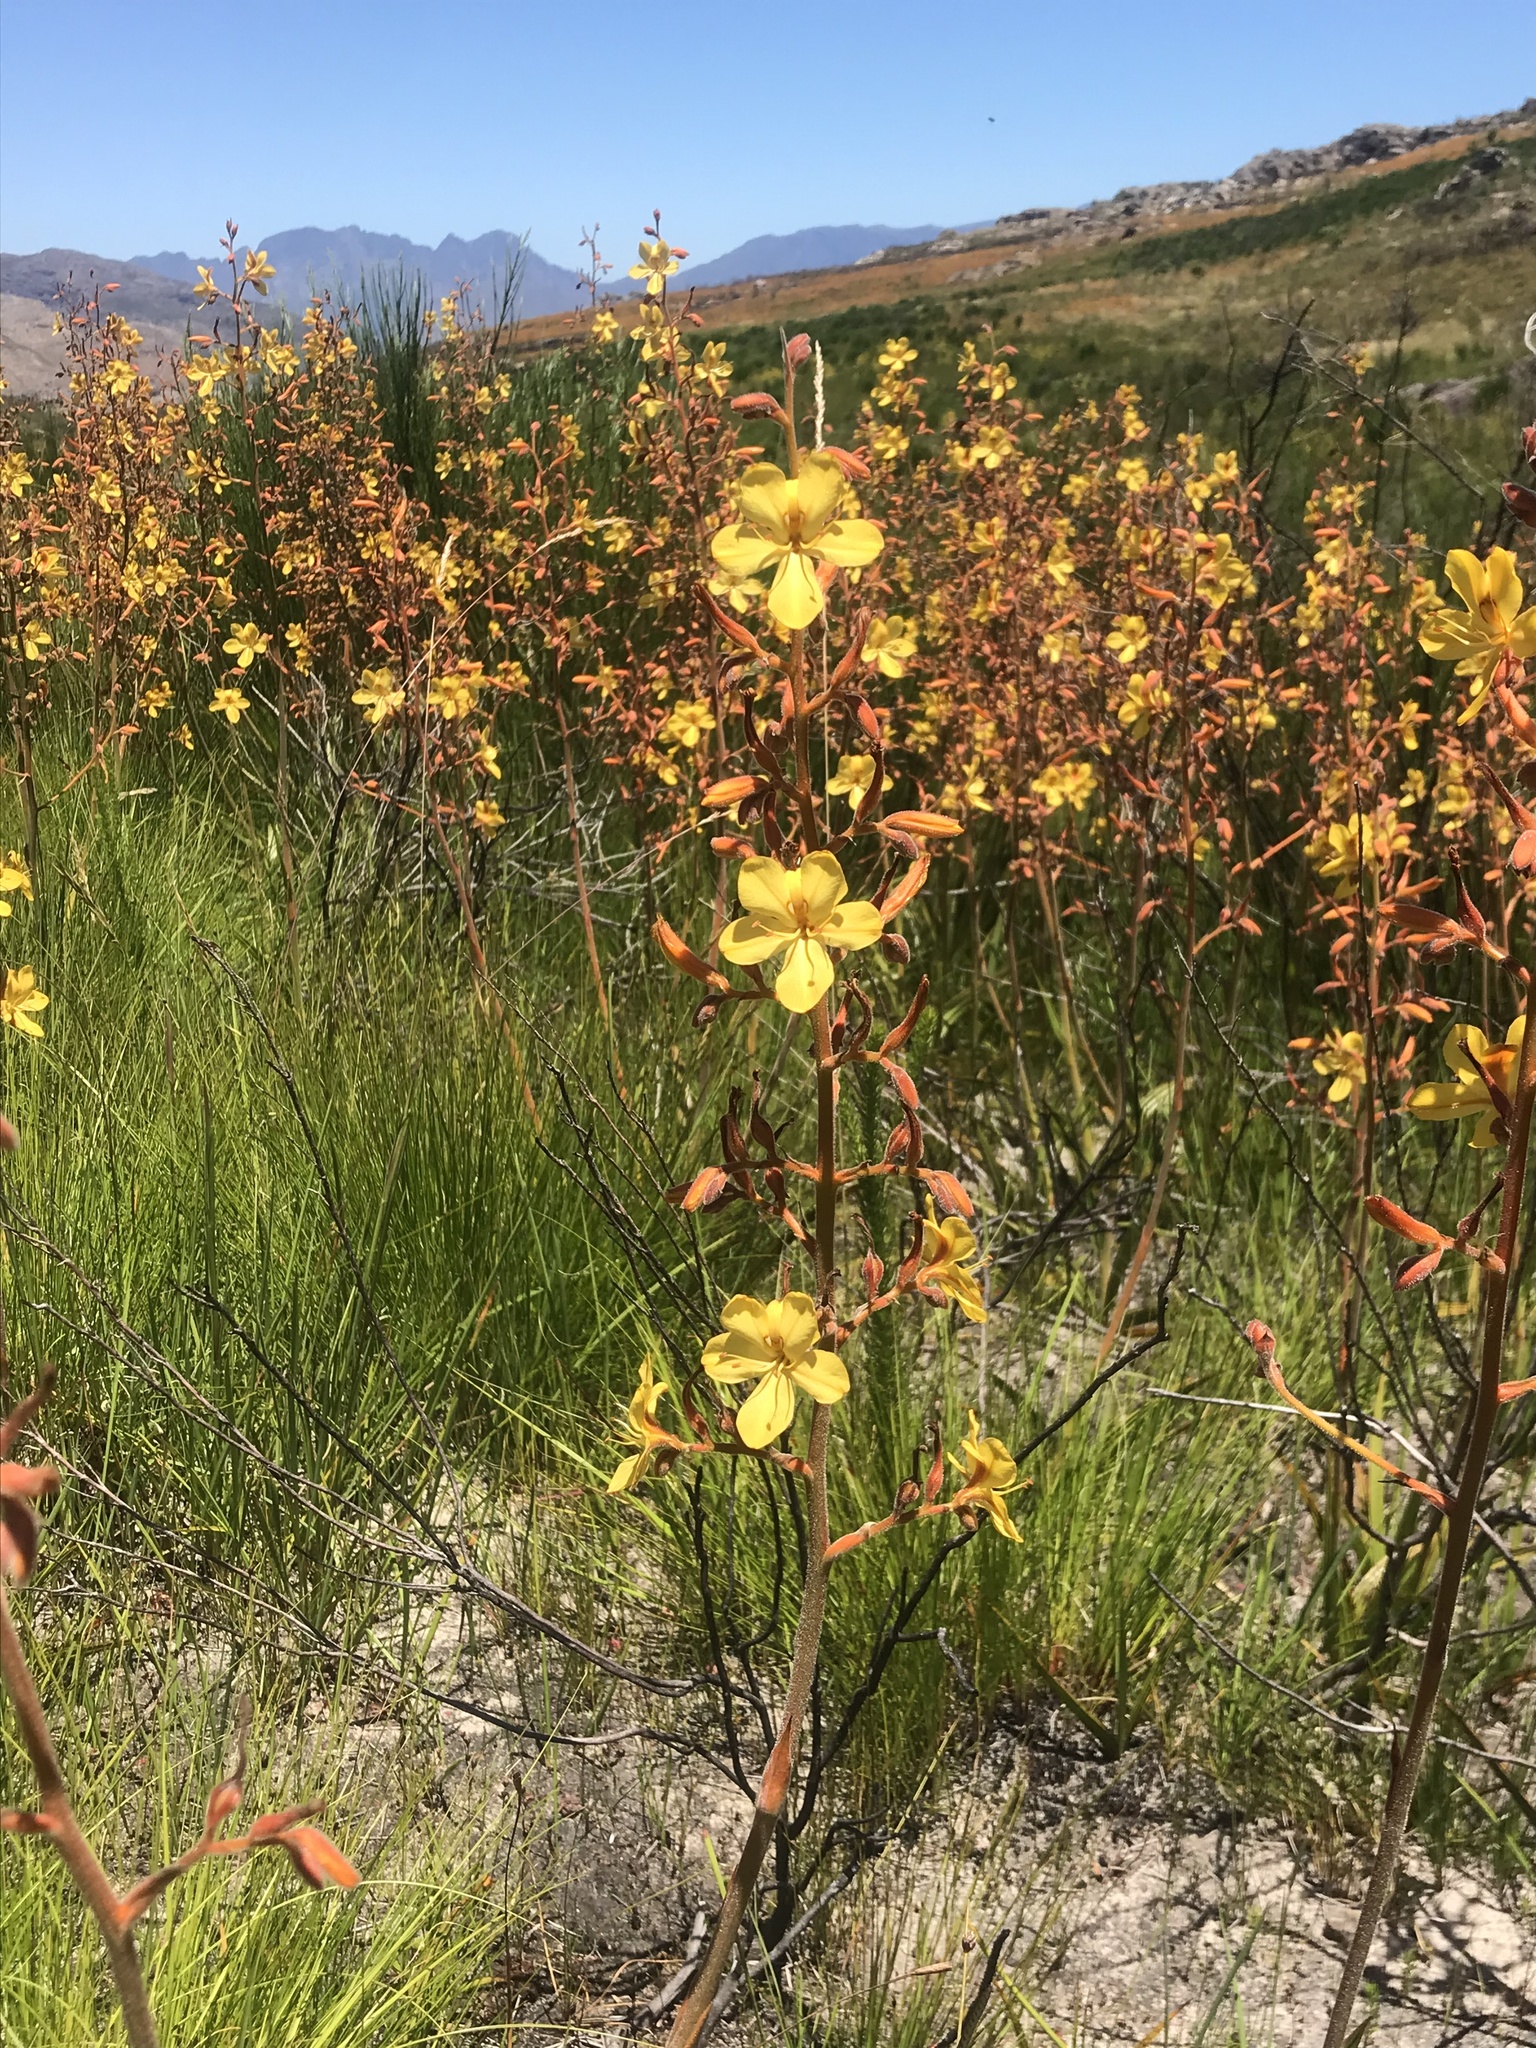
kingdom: Plantae
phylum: Tracheophyta
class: Liliopsida
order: Commelinales
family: Haemodoraceae
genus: Wachendorfia
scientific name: Wachendorfia paniculata
